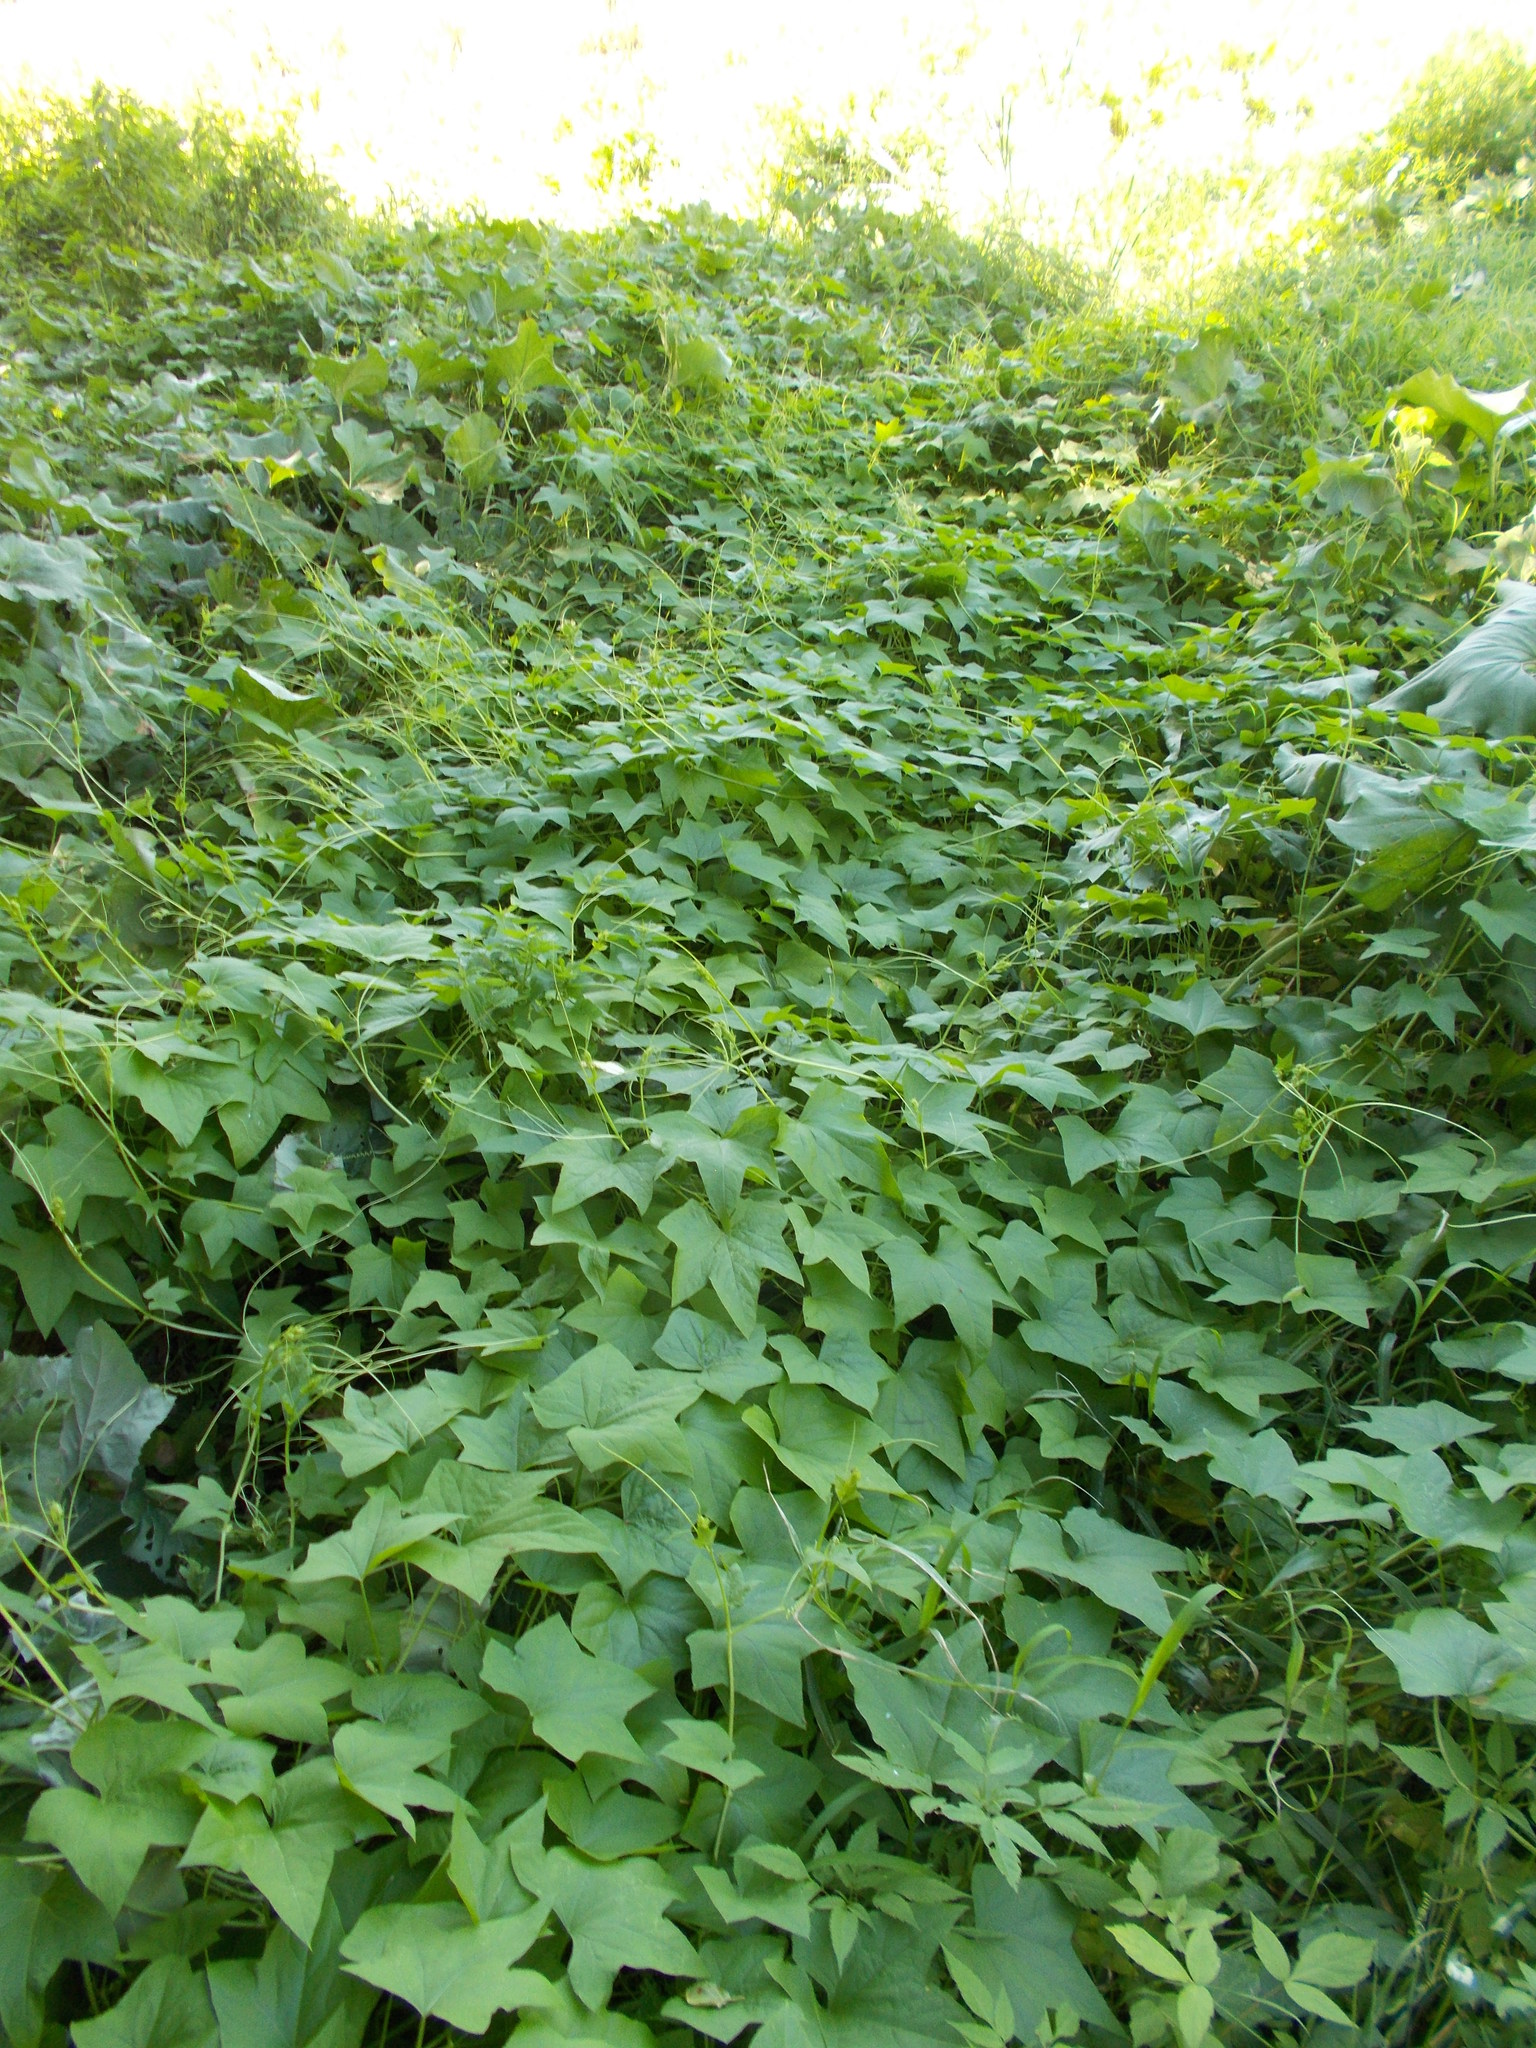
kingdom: Plantae
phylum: Tracheophyta
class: Magnoliopsida
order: Cucurbitales
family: Cucurbitaceae
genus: Echinocystis
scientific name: Echinocystis lobata
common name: Wild cucumber
